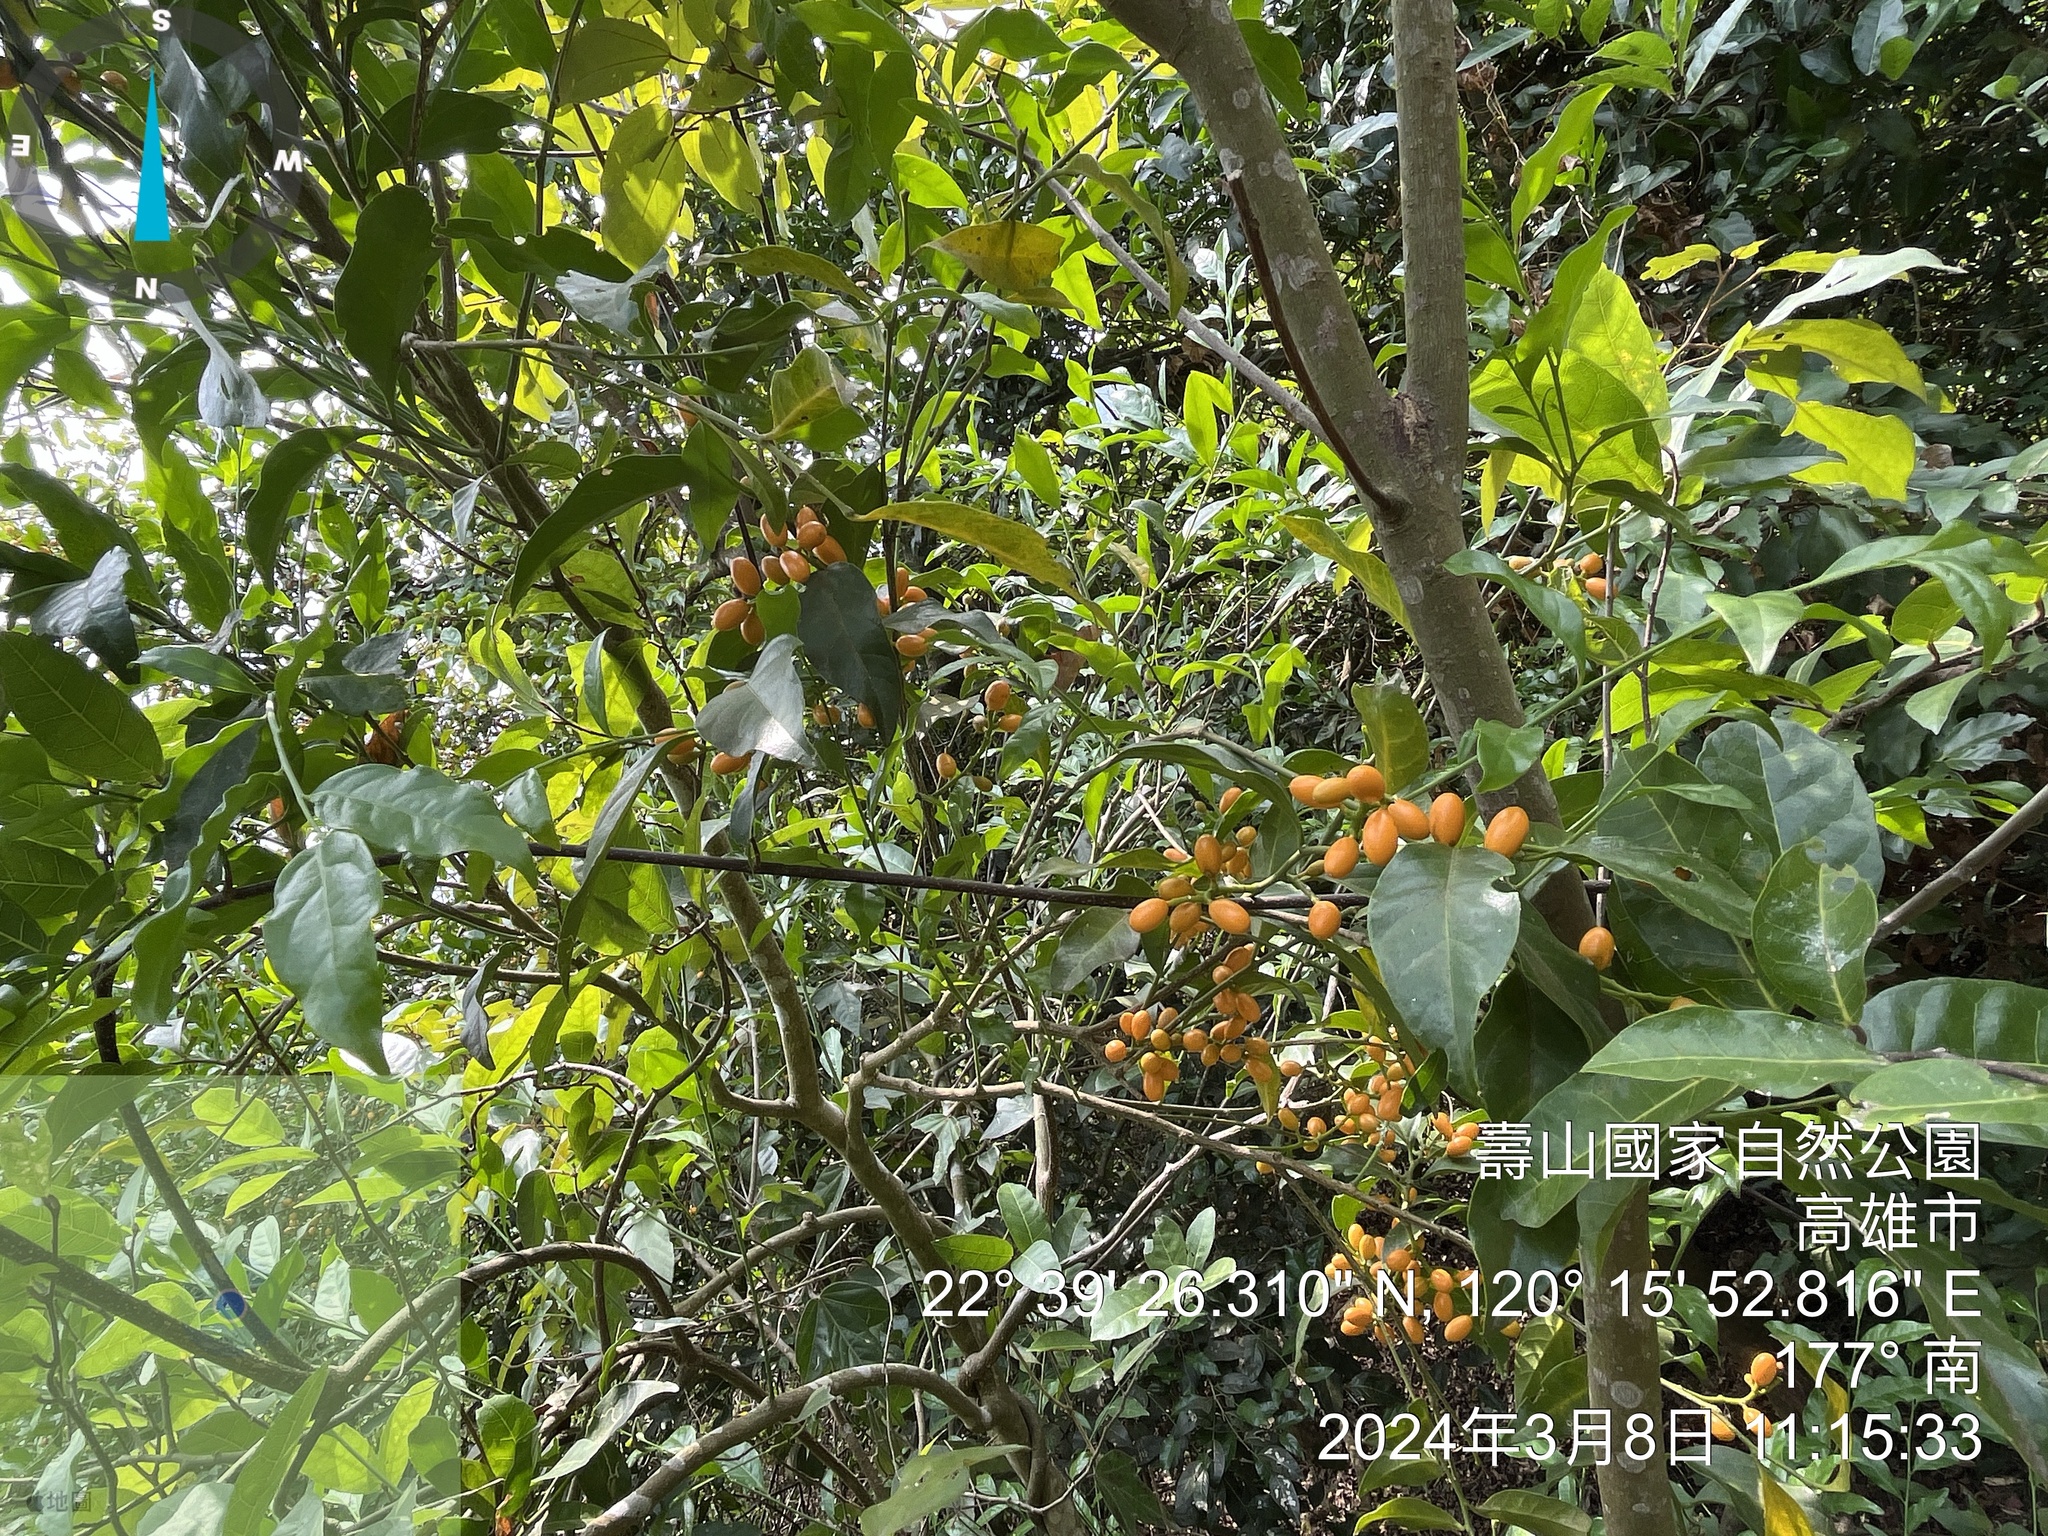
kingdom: Plantae
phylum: Tracheophyta
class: Magnoliopsida
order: Santalales
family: Opiliaceae
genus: Champereia
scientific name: Champereia manillana
